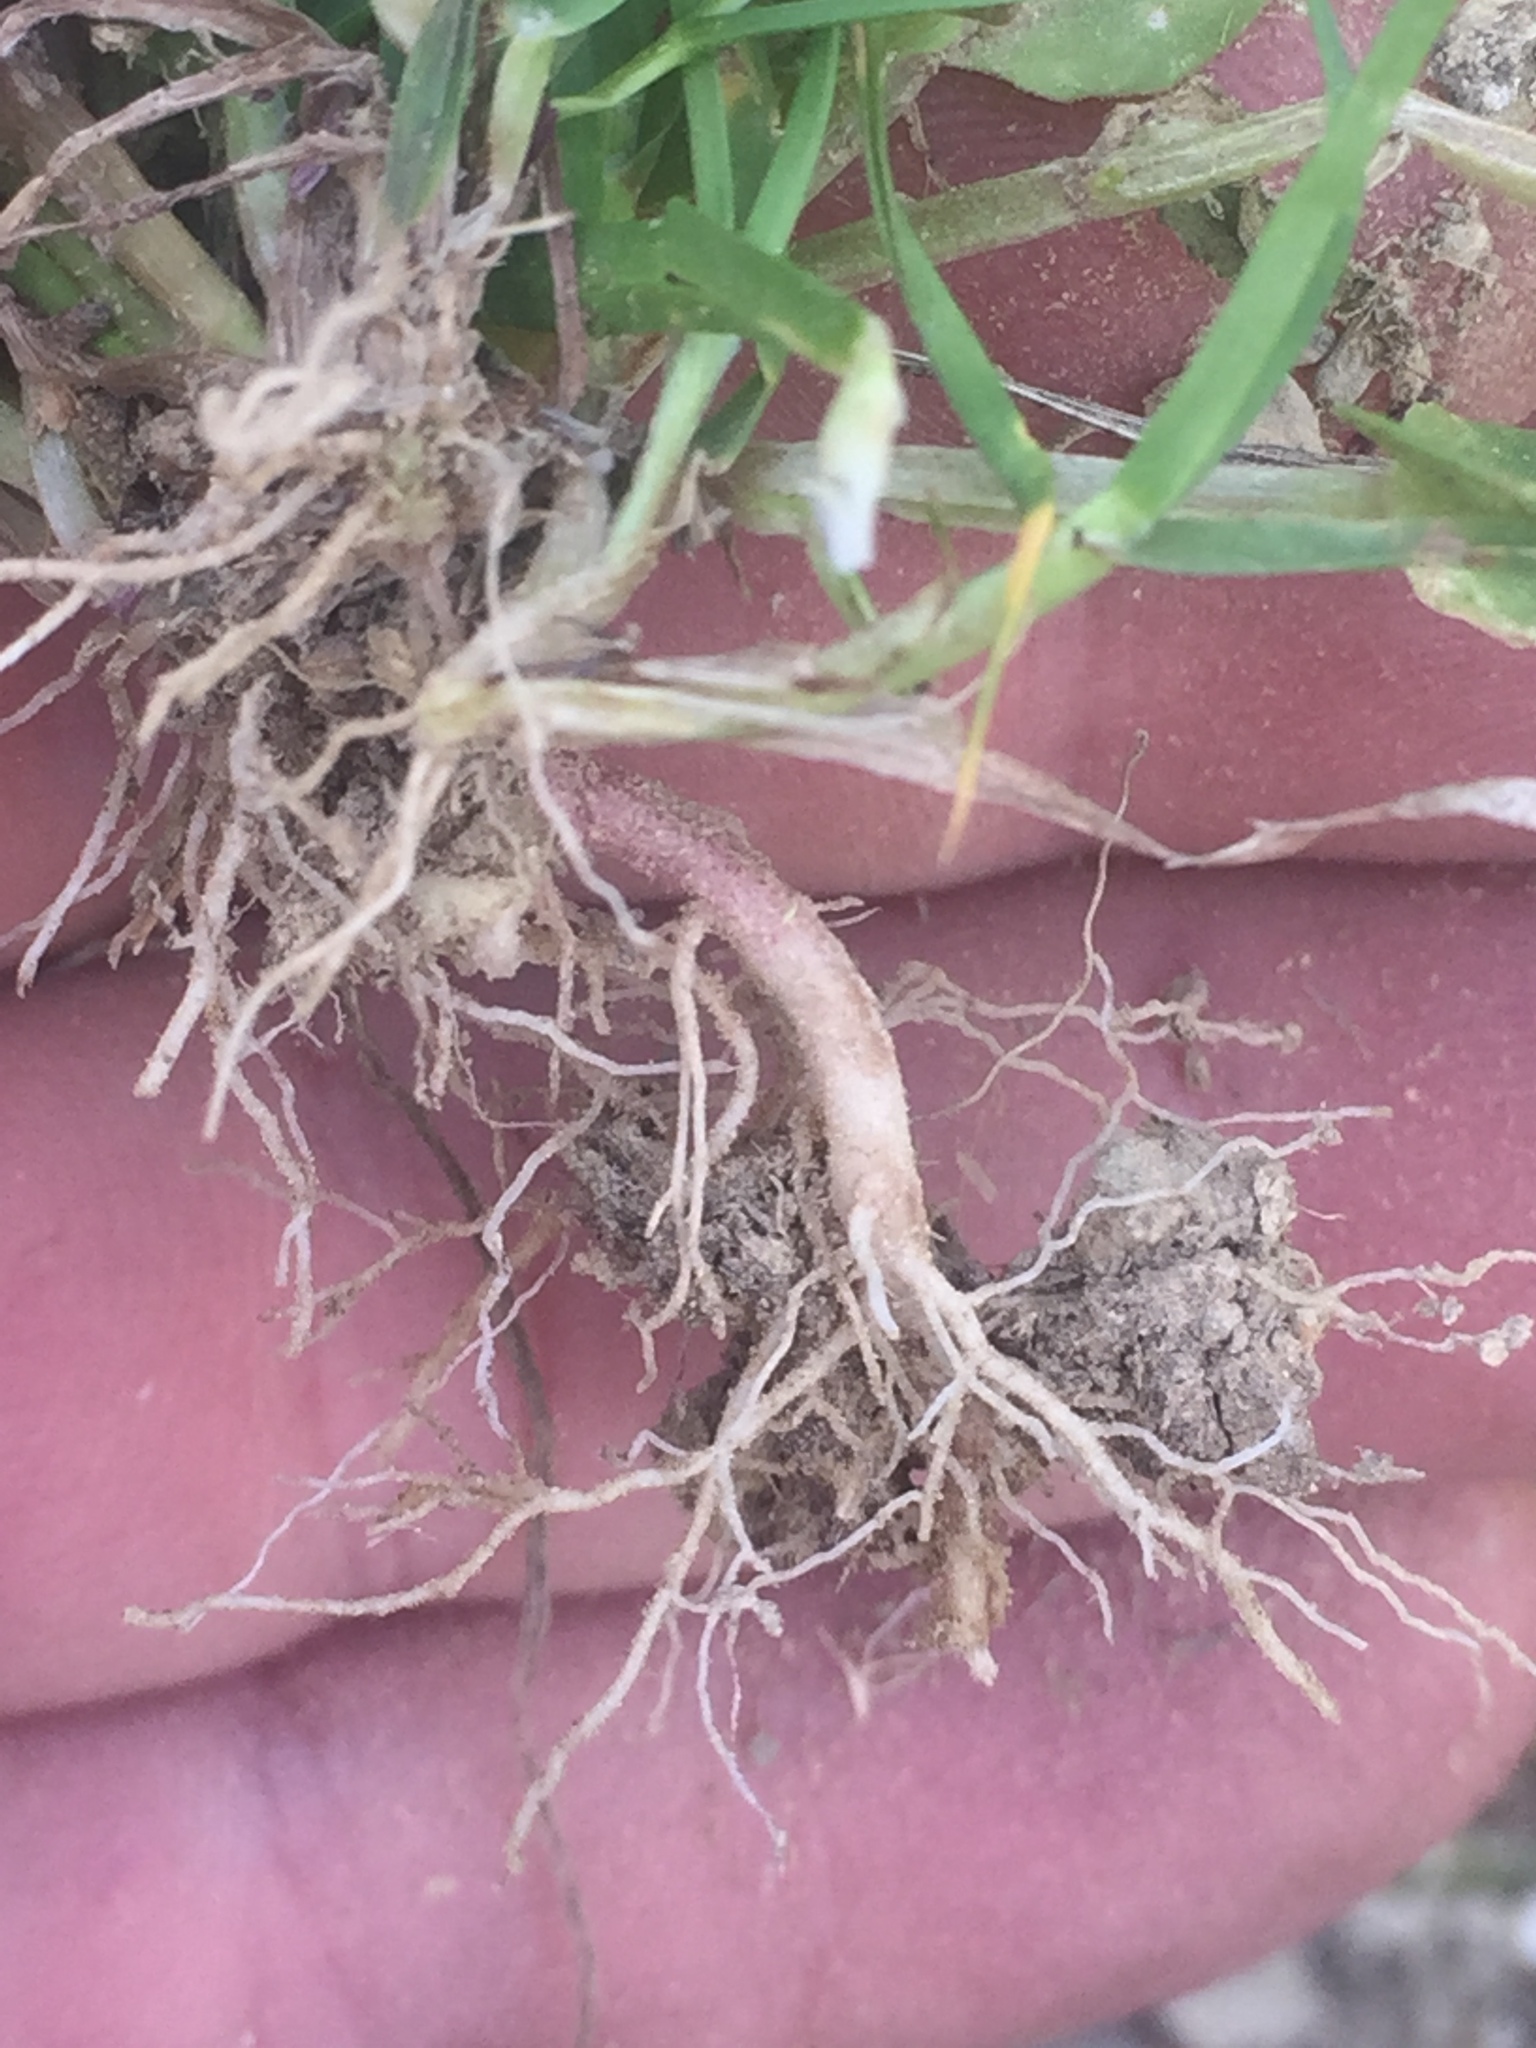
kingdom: Plantae
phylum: Tracheophyta
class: Magnoliopsida
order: Ericales
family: Primulaceae
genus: Lysimachia
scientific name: Lysimachia arvensis
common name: Scarlet pimpernel
